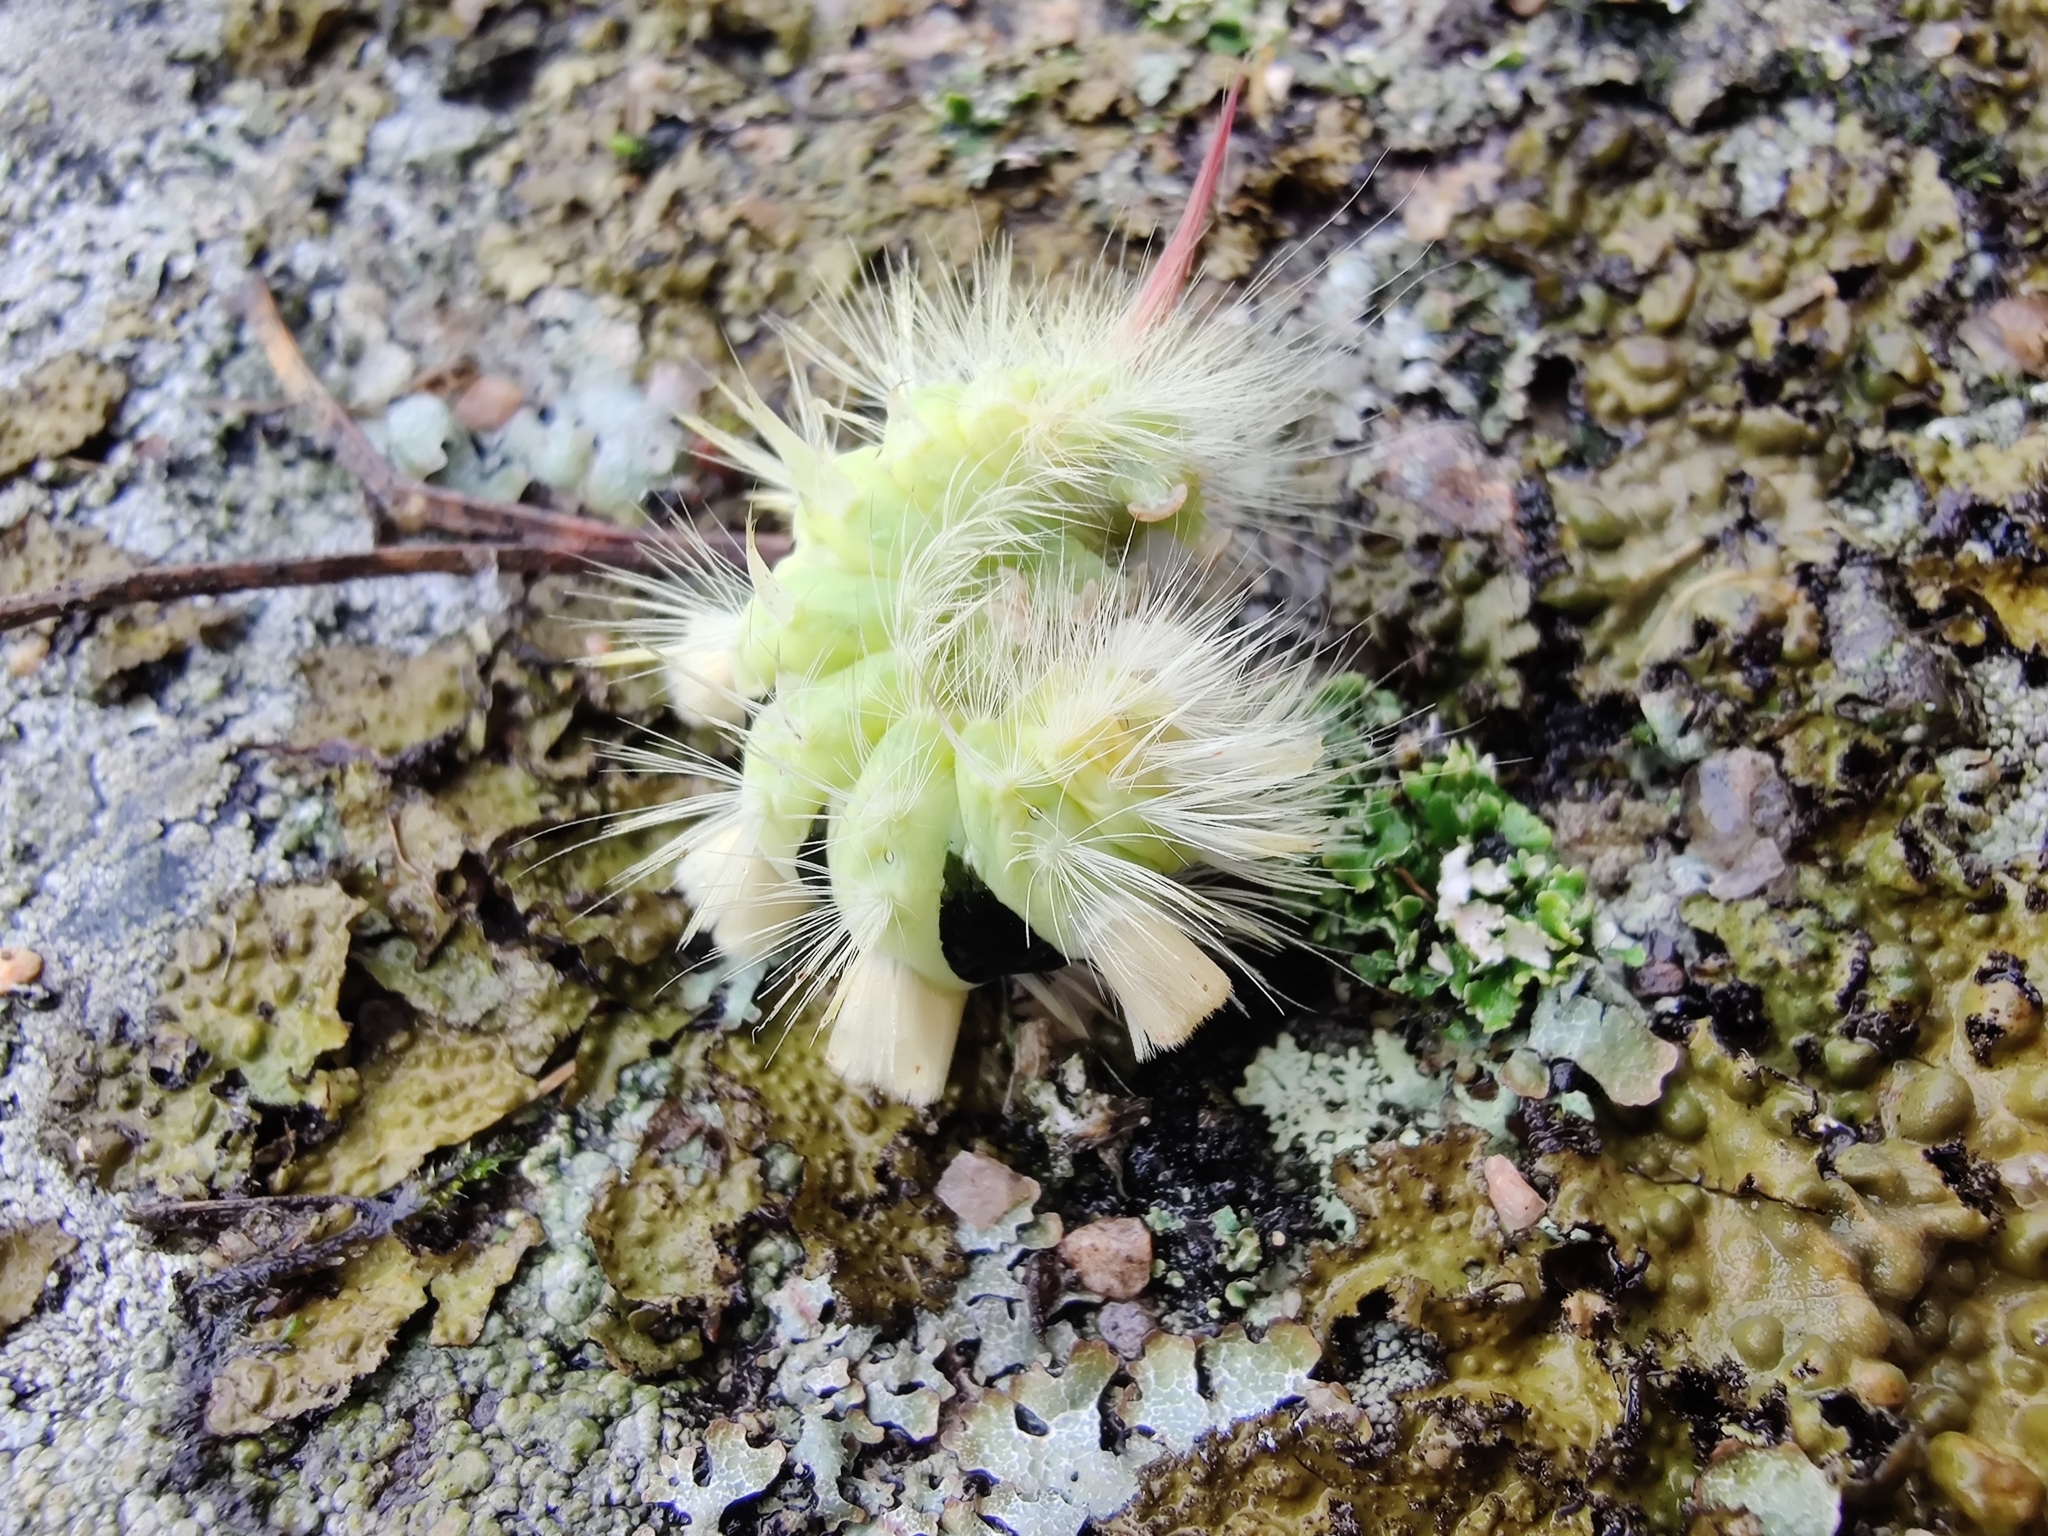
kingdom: Animalia
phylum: Arthropoda
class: Insecta
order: Lepidoptera
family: Erebidae
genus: Calliteara
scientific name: Calliteara pudibunda
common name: Pale tussock
